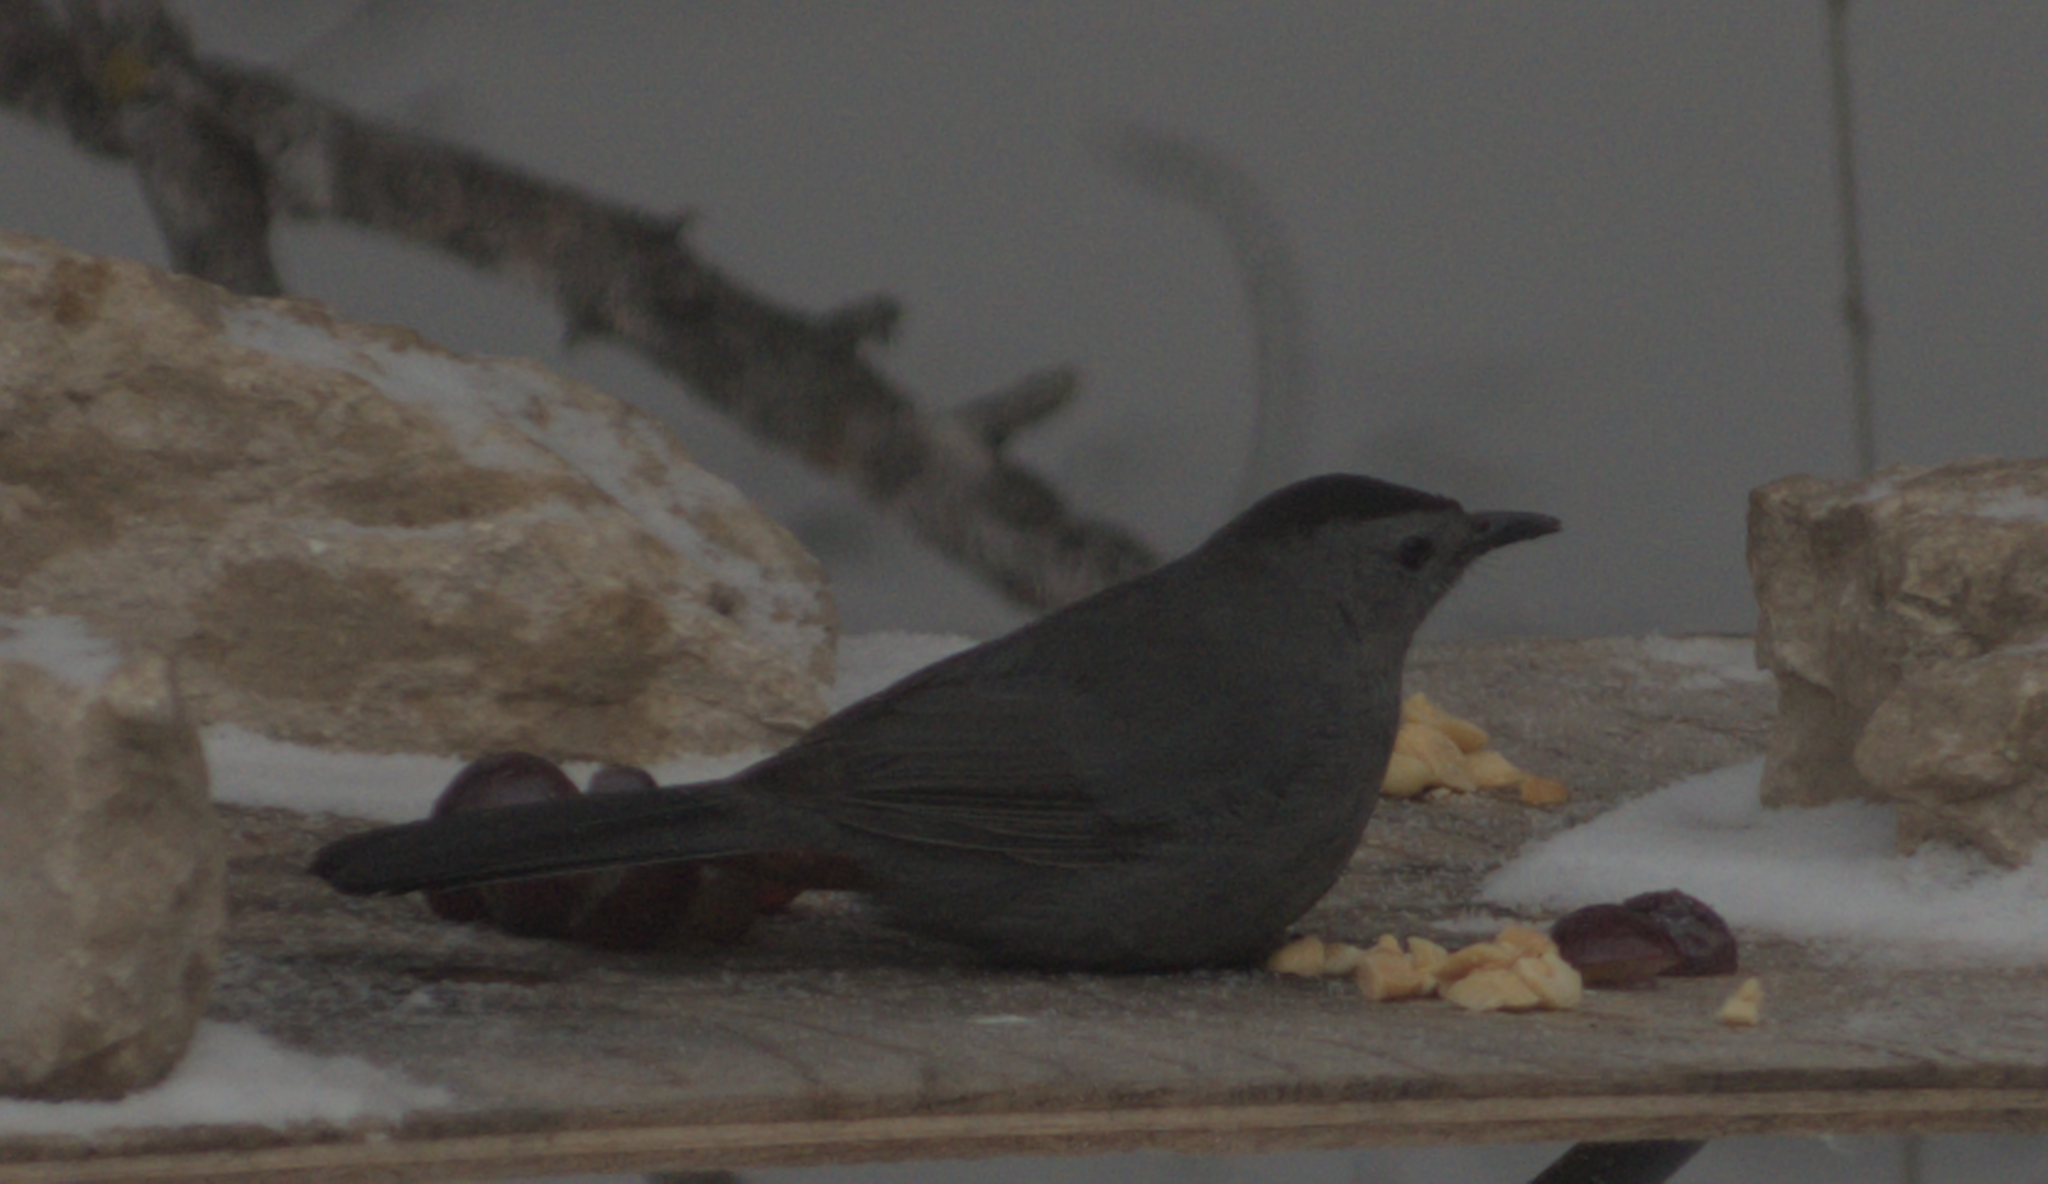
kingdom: Animalia
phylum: Chordata
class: Aves
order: Passeriformes
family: Mimidae
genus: Dumetella
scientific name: Dumetella carolinensis
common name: Gray catbird
